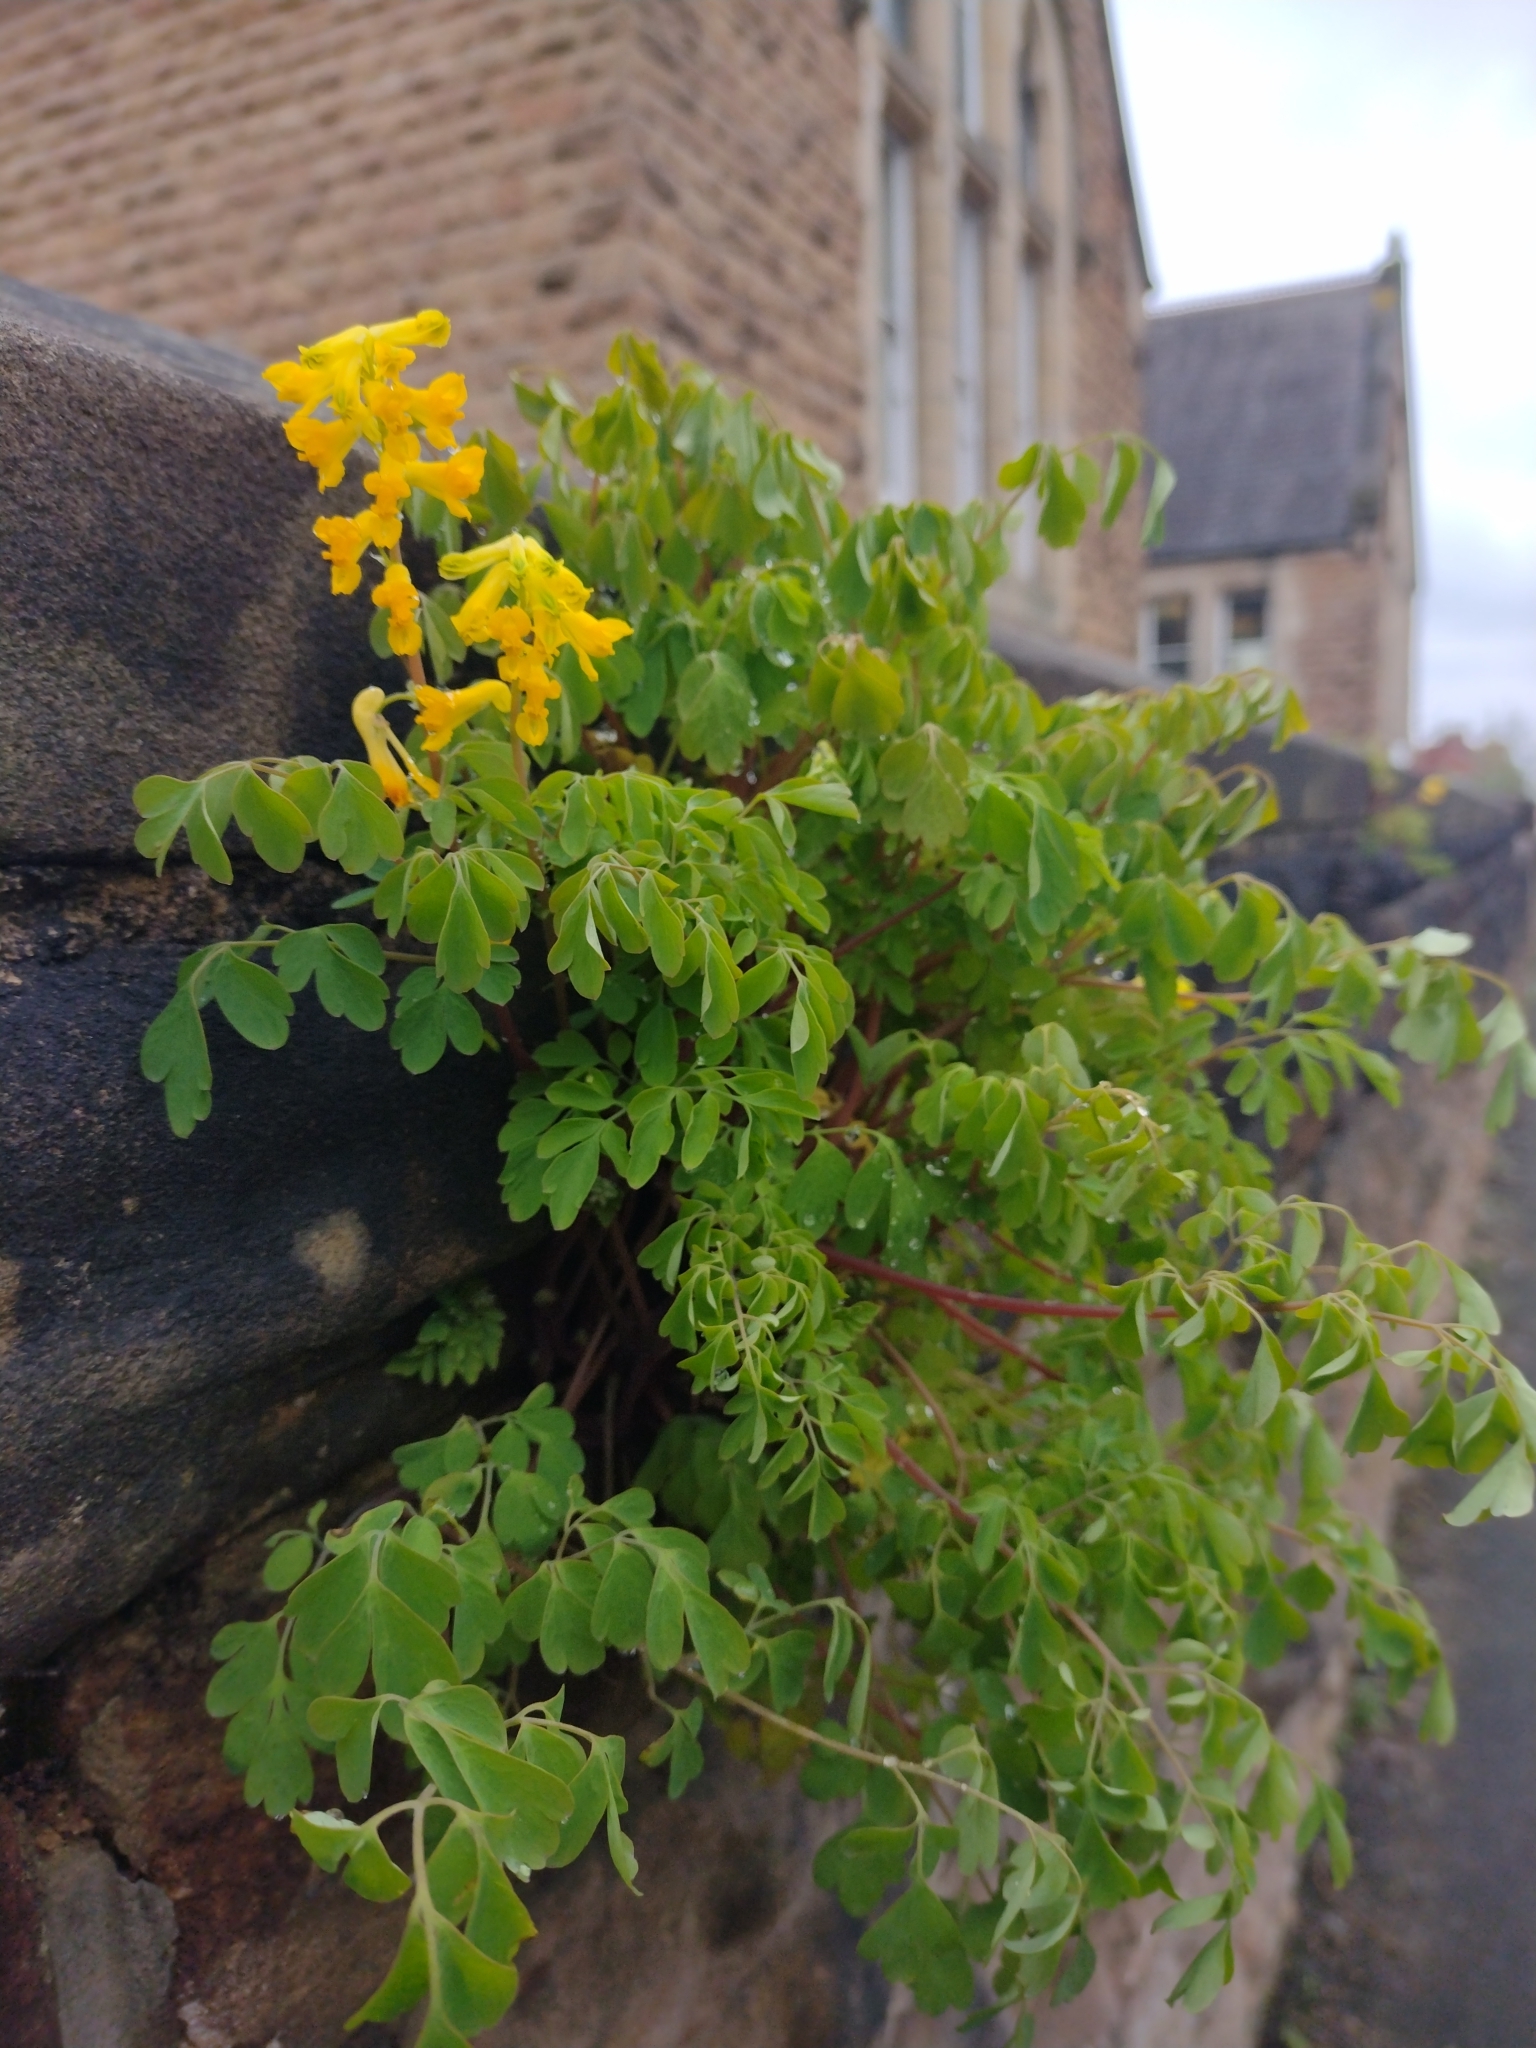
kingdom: Plantae
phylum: Tracheophyta
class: Magnoliopsida
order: Ranunculales
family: Papaveraceae
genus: Pseudofumaria
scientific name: Pseudofumaria lutea
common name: Yellow corydalis
